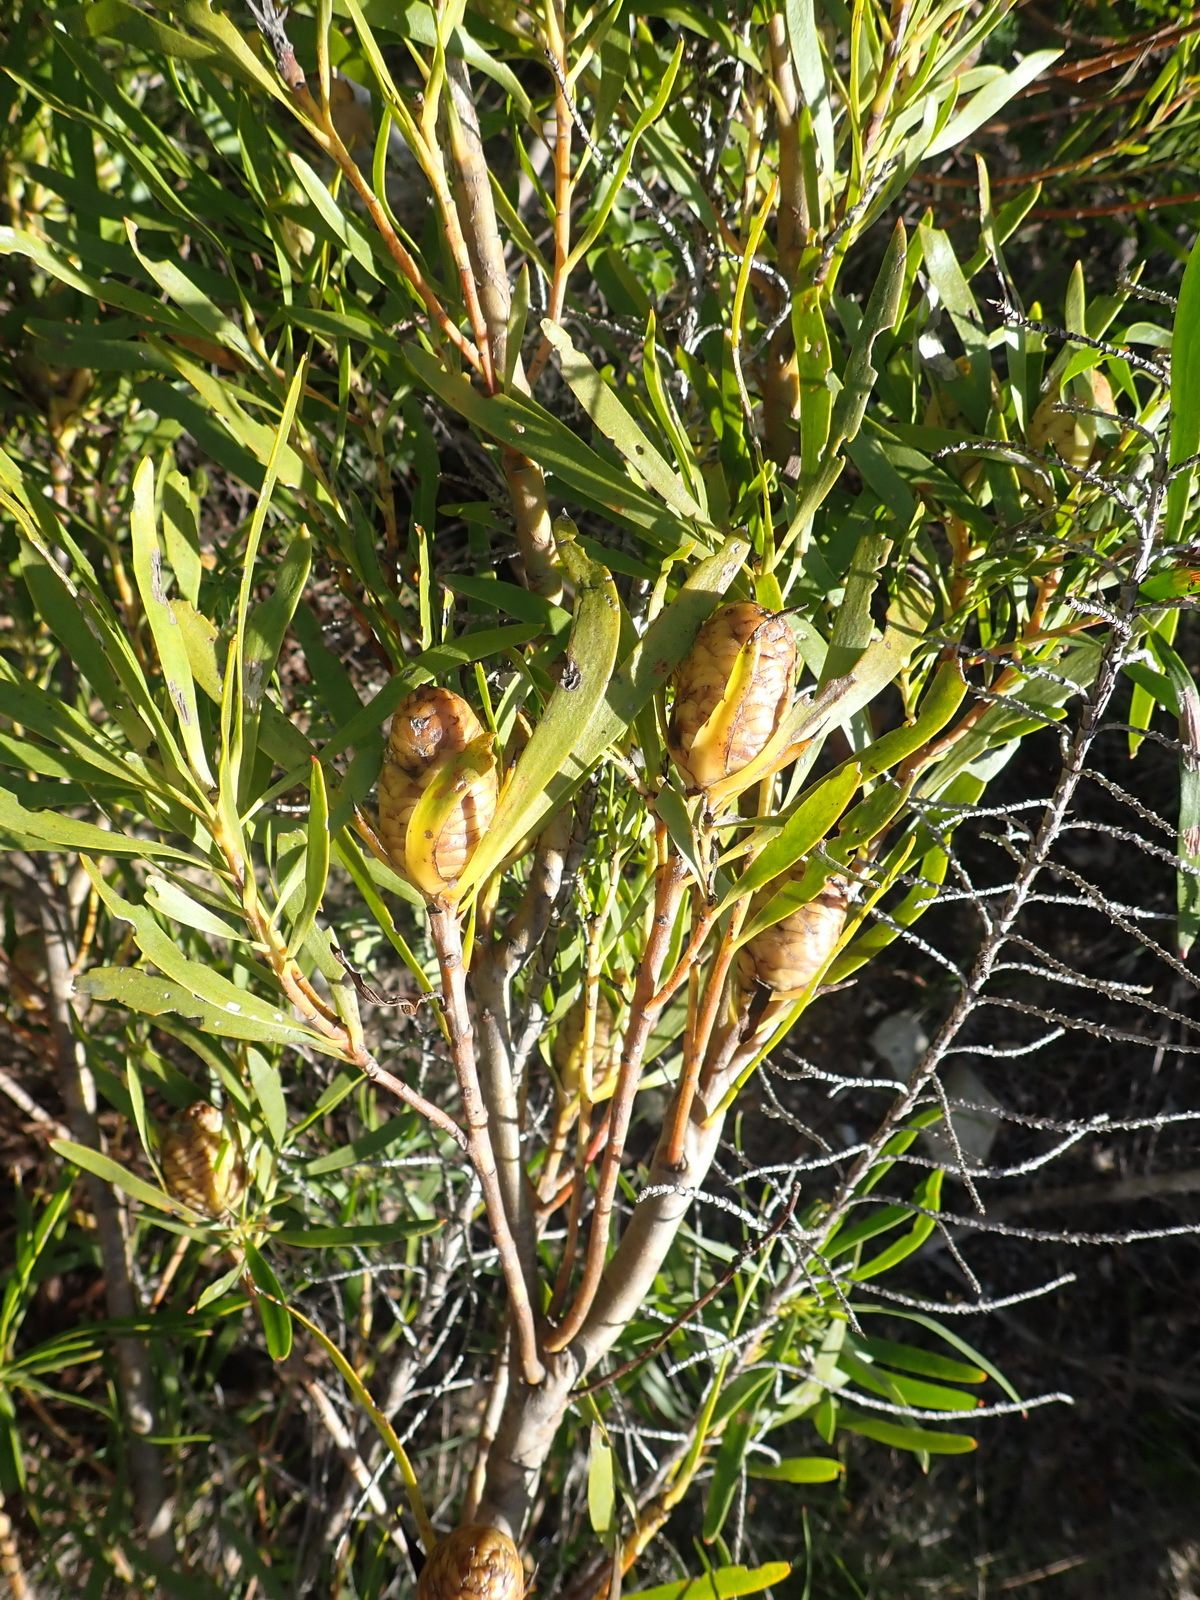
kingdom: Plantae
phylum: Tracheophyta
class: Magnoliopsida
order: Proteales
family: Proteaceae
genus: Leucadendron
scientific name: Leucadendron eucalyptifolium
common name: Gum-leaved conebush
